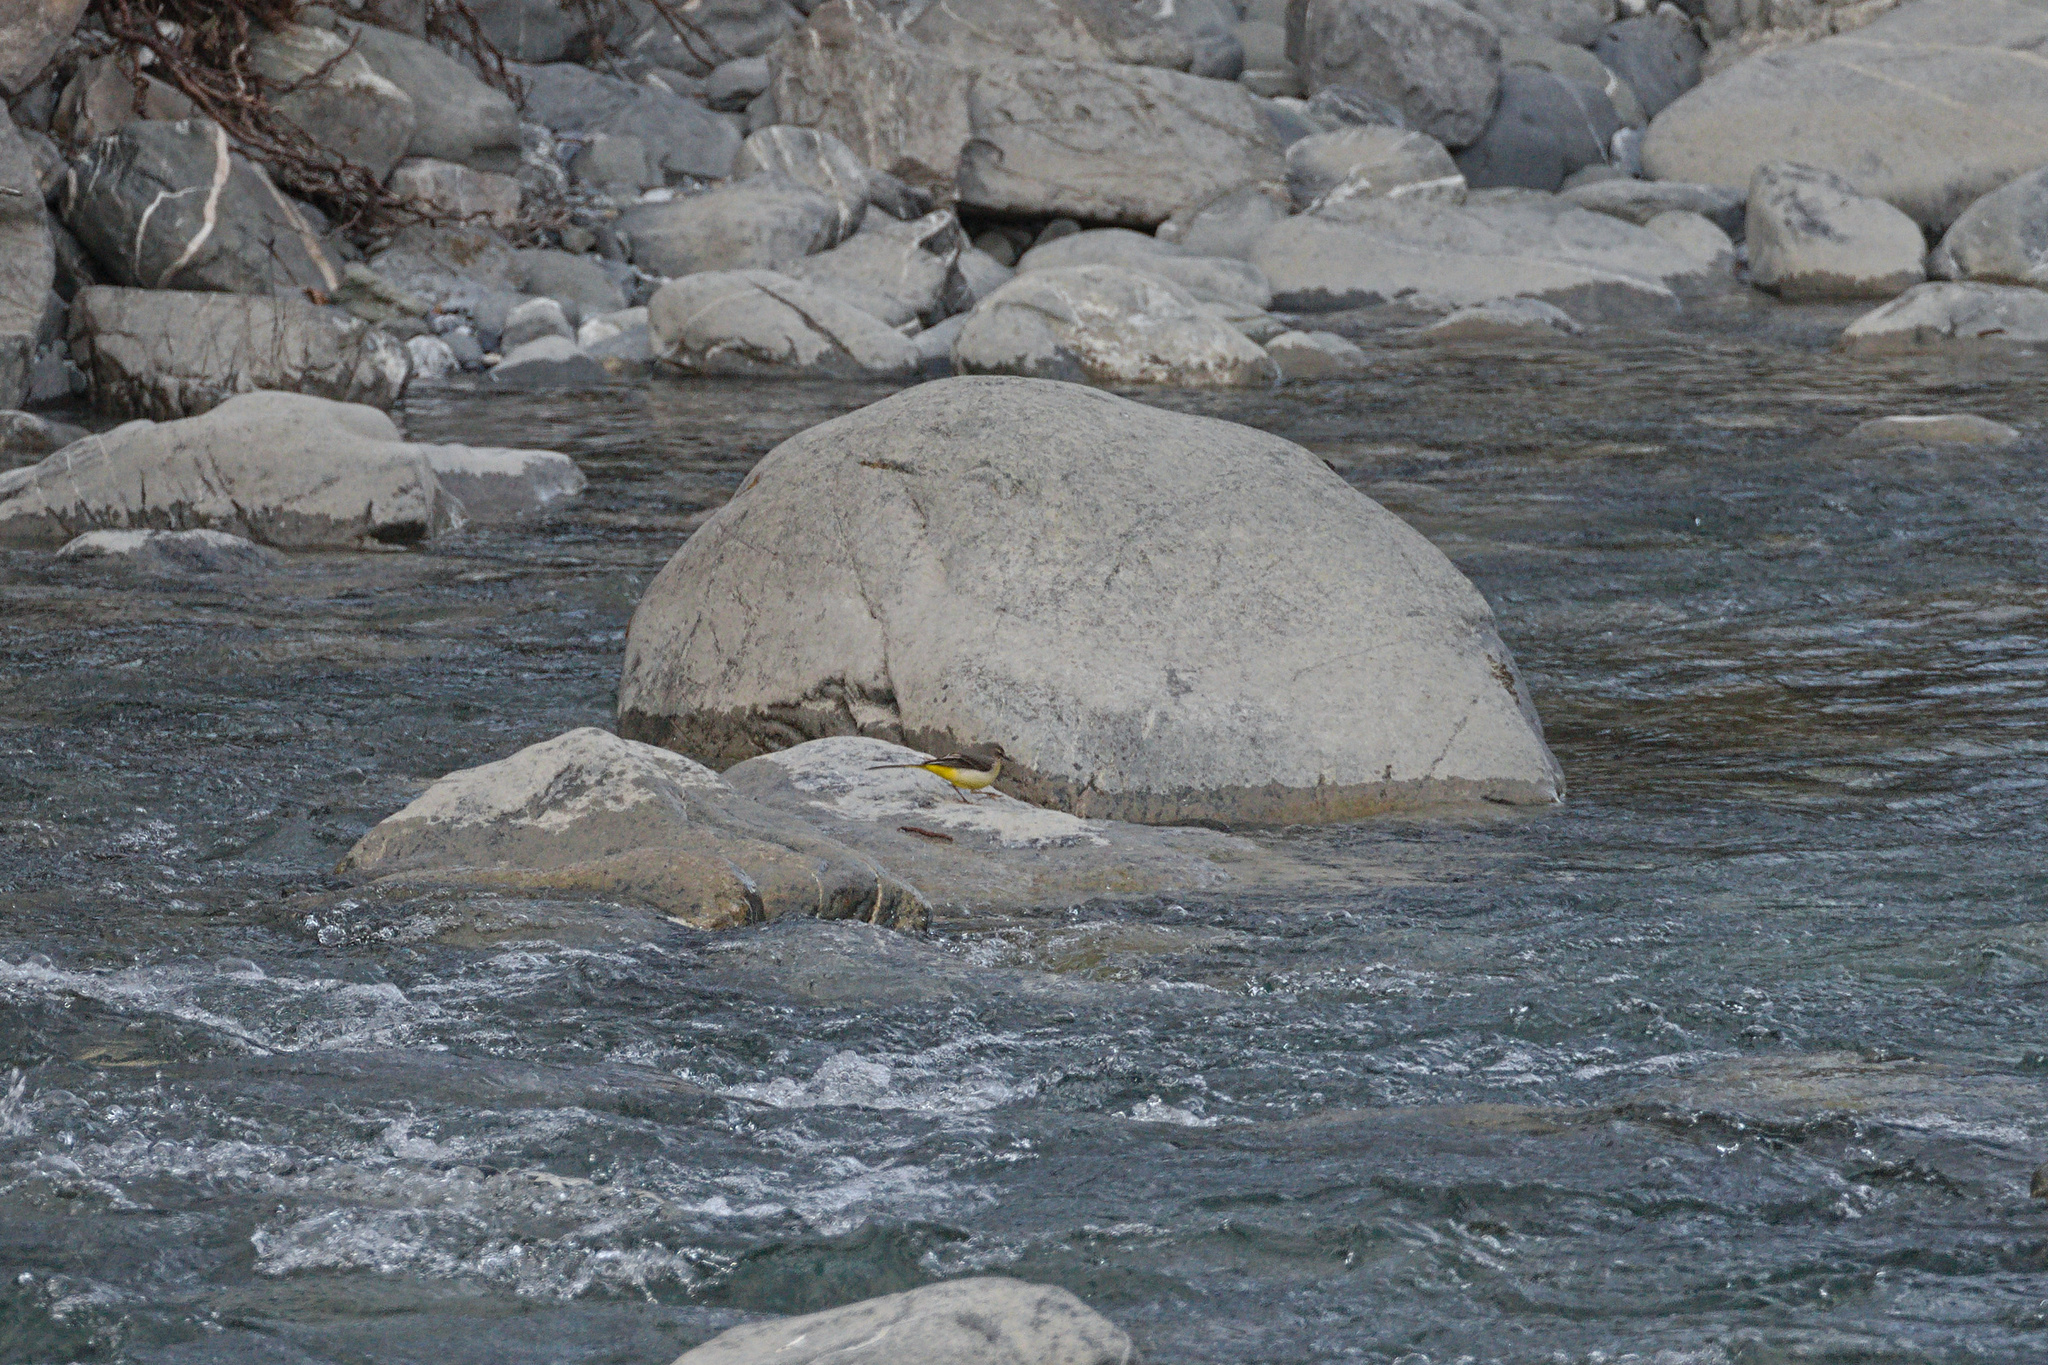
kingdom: Animalia
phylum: Chordata
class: Aves
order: Passeriformes
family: Motacillidae
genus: Motacilla
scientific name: Motacilla cinerea
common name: Grey wagtail
